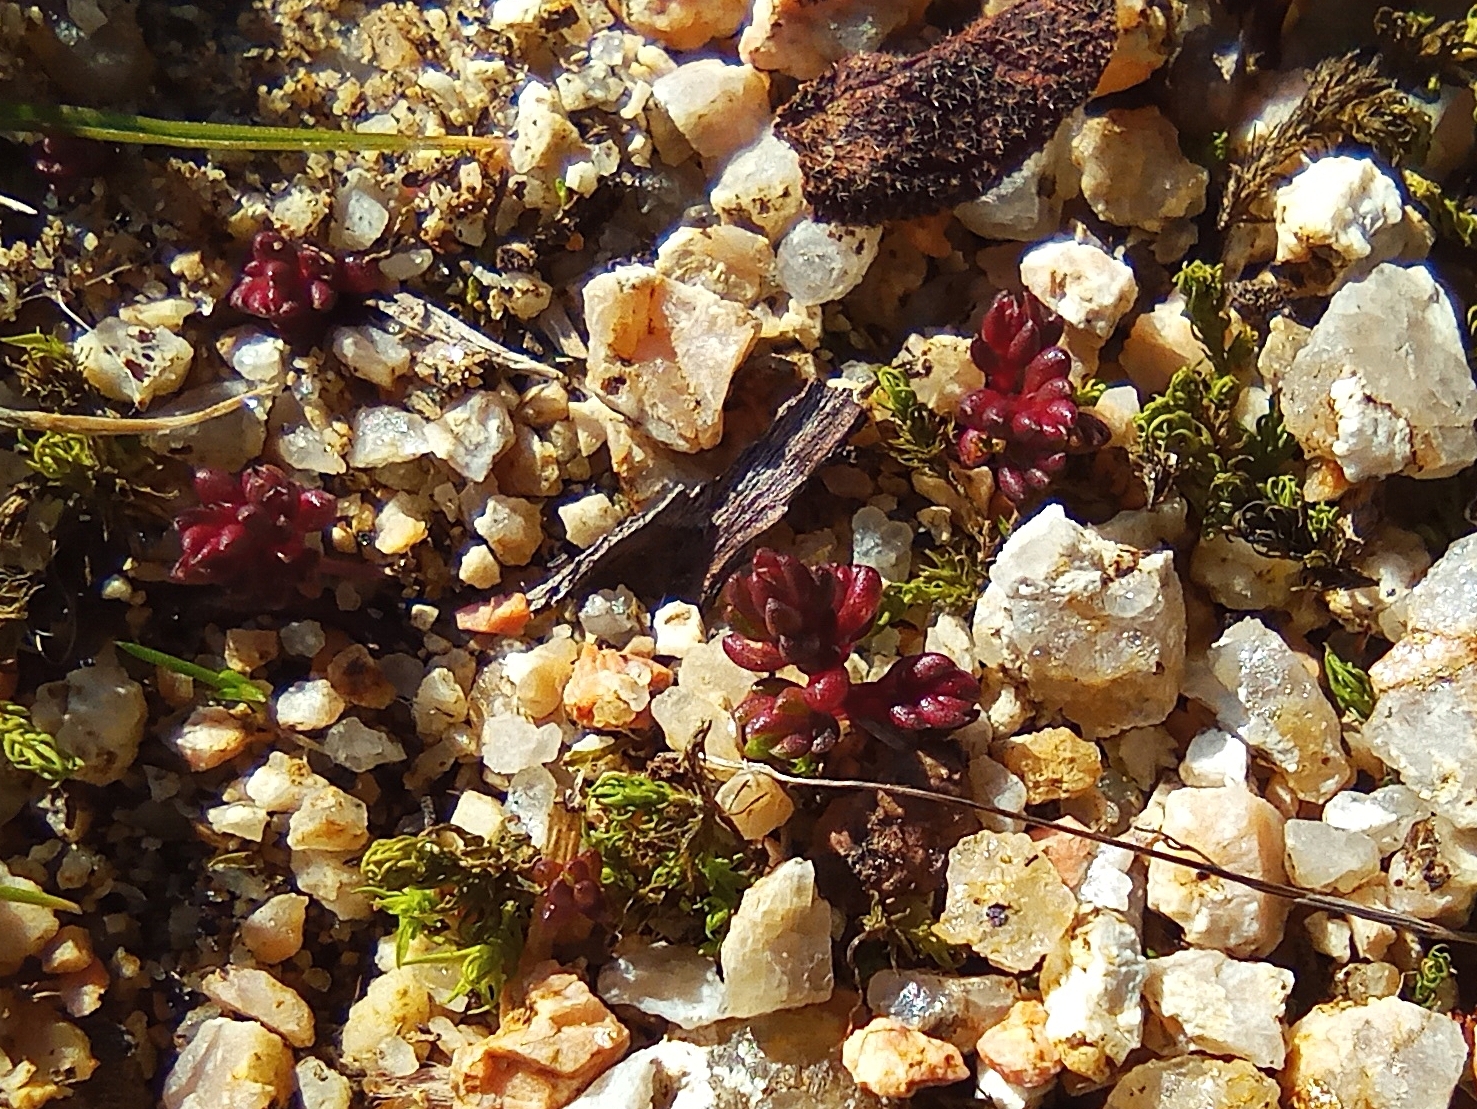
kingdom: Plantae
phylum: Tracheophyta
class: Magnoliopsida
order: Saxifragales
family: Crassulaceae
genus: Crassula
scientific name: Crassula tillaea
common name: Mossy stonecrop
